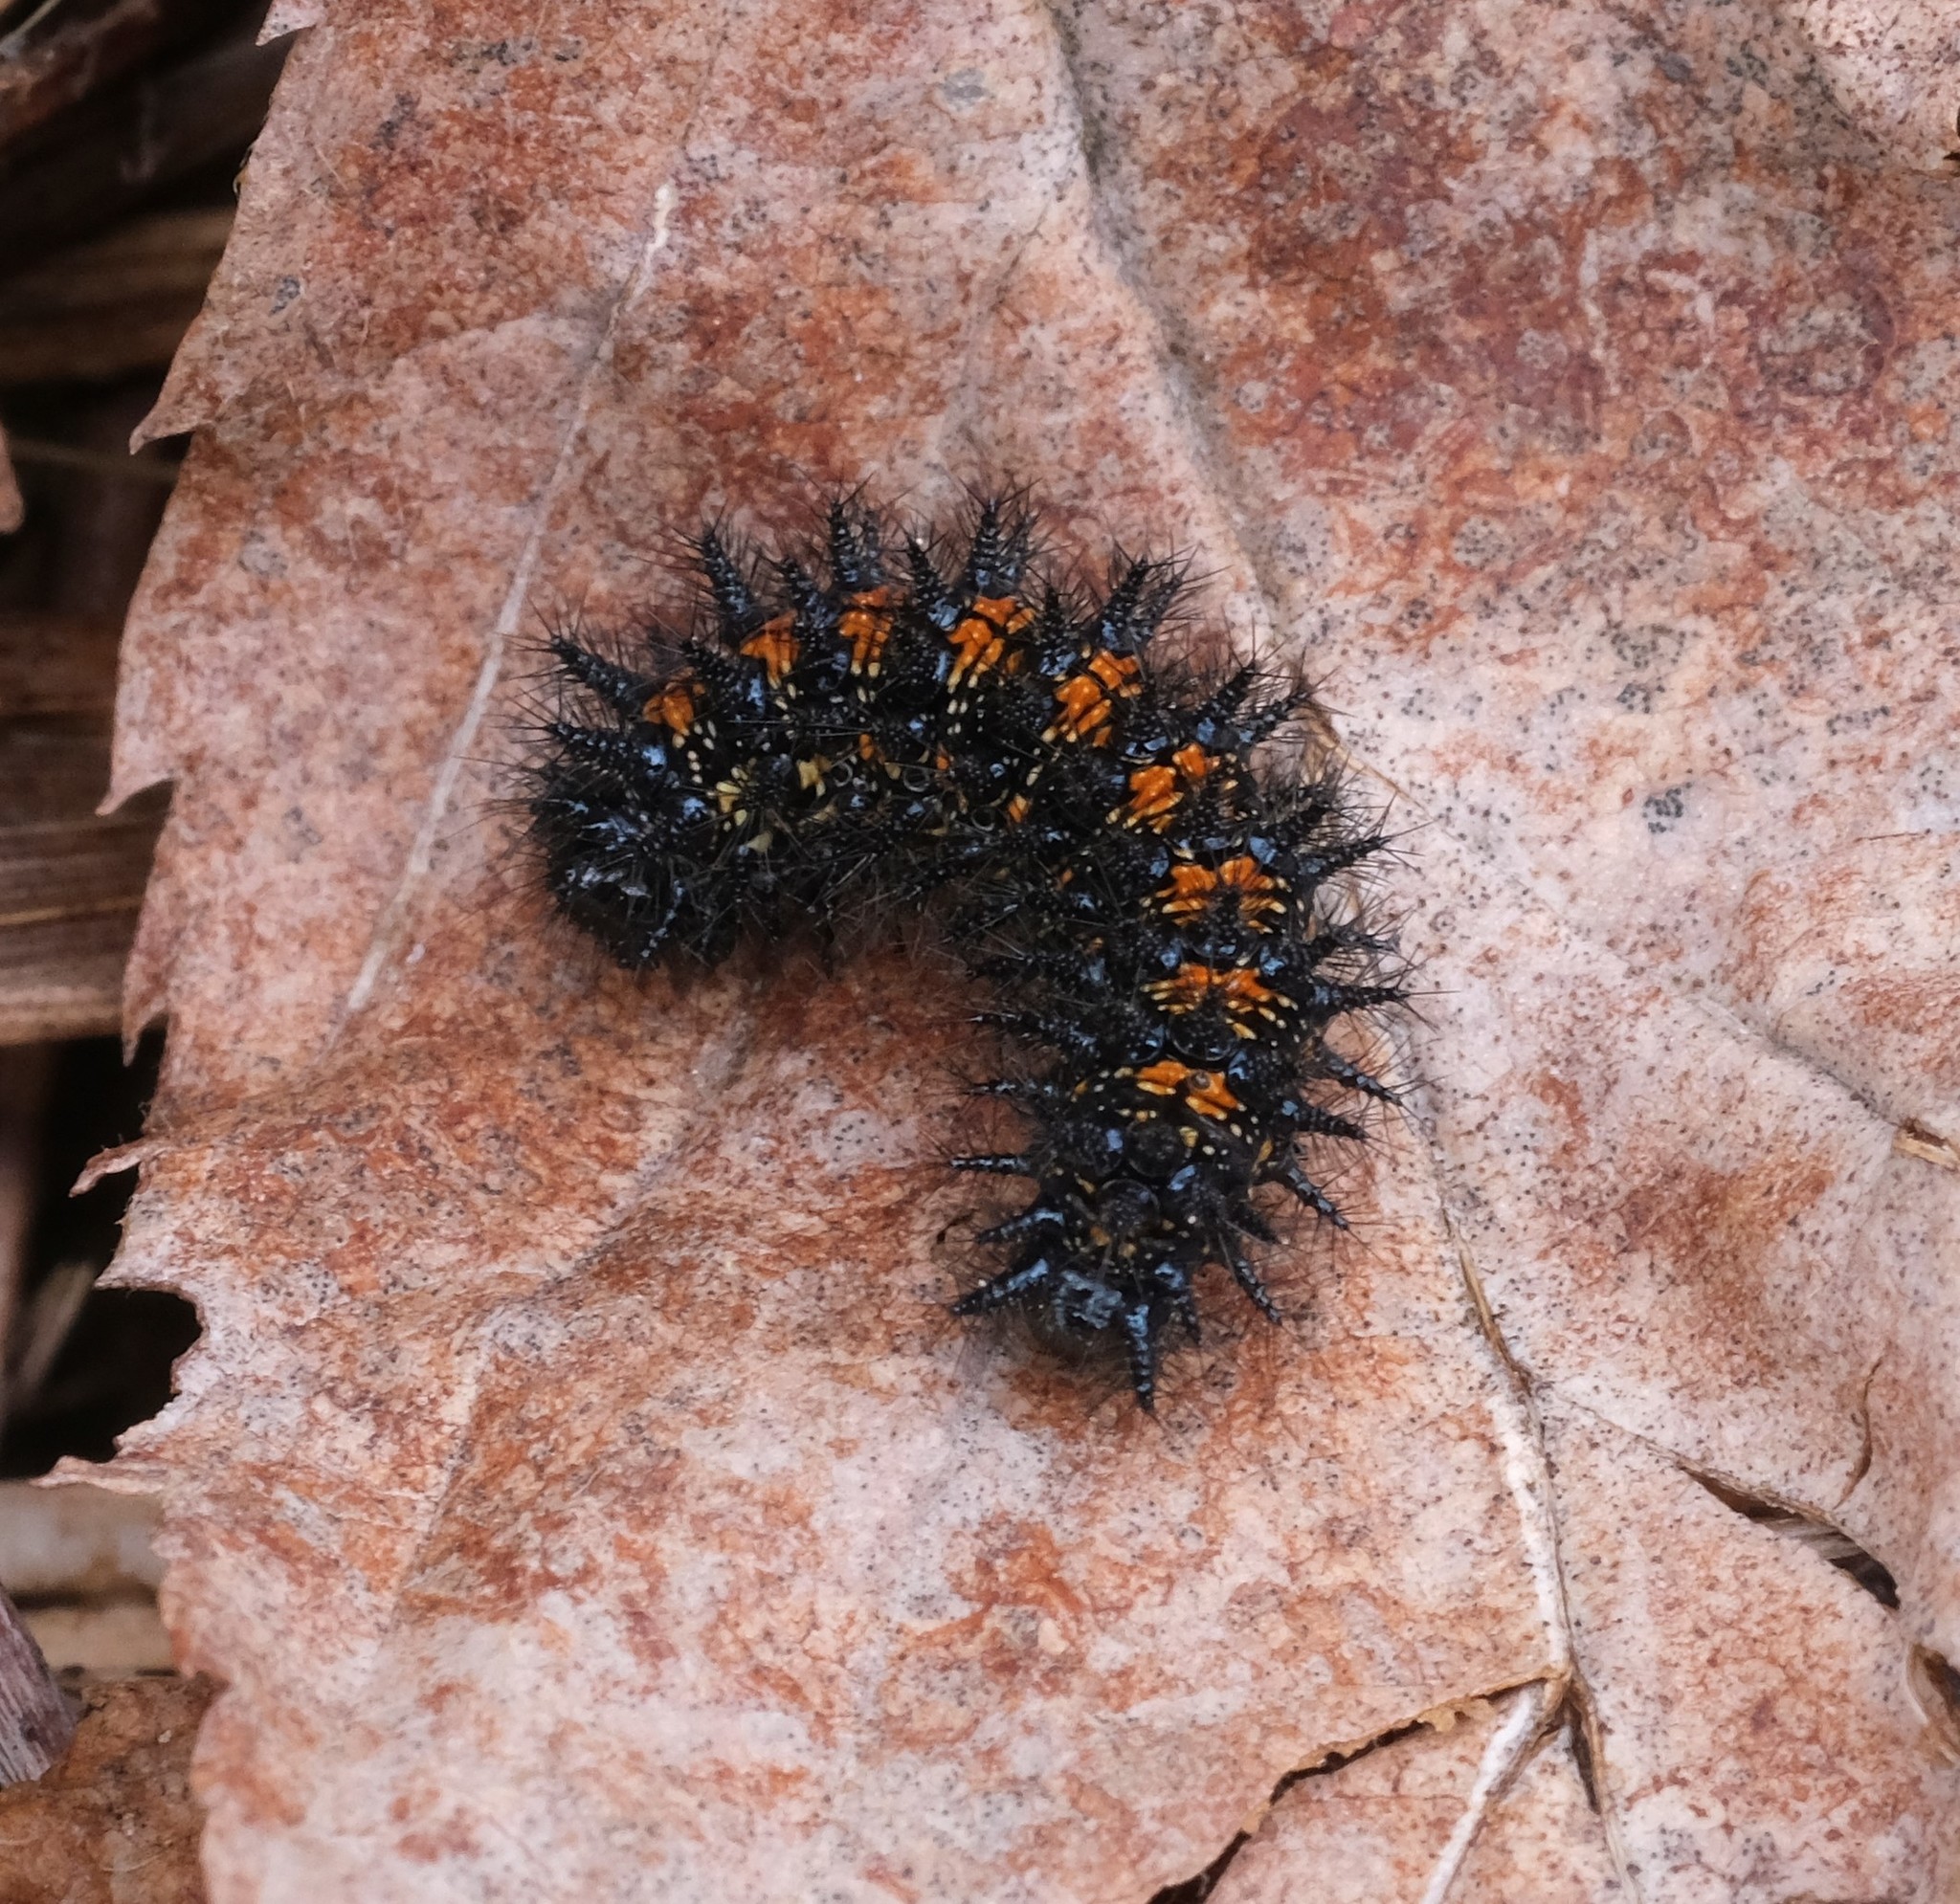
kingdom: Animalia
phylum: Arthropoda
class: Insecta
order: Lepidoptera
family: Nymphalidae
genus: Chlosyne
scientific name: Chlosyne harrisii
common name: Harris's checkerspot
